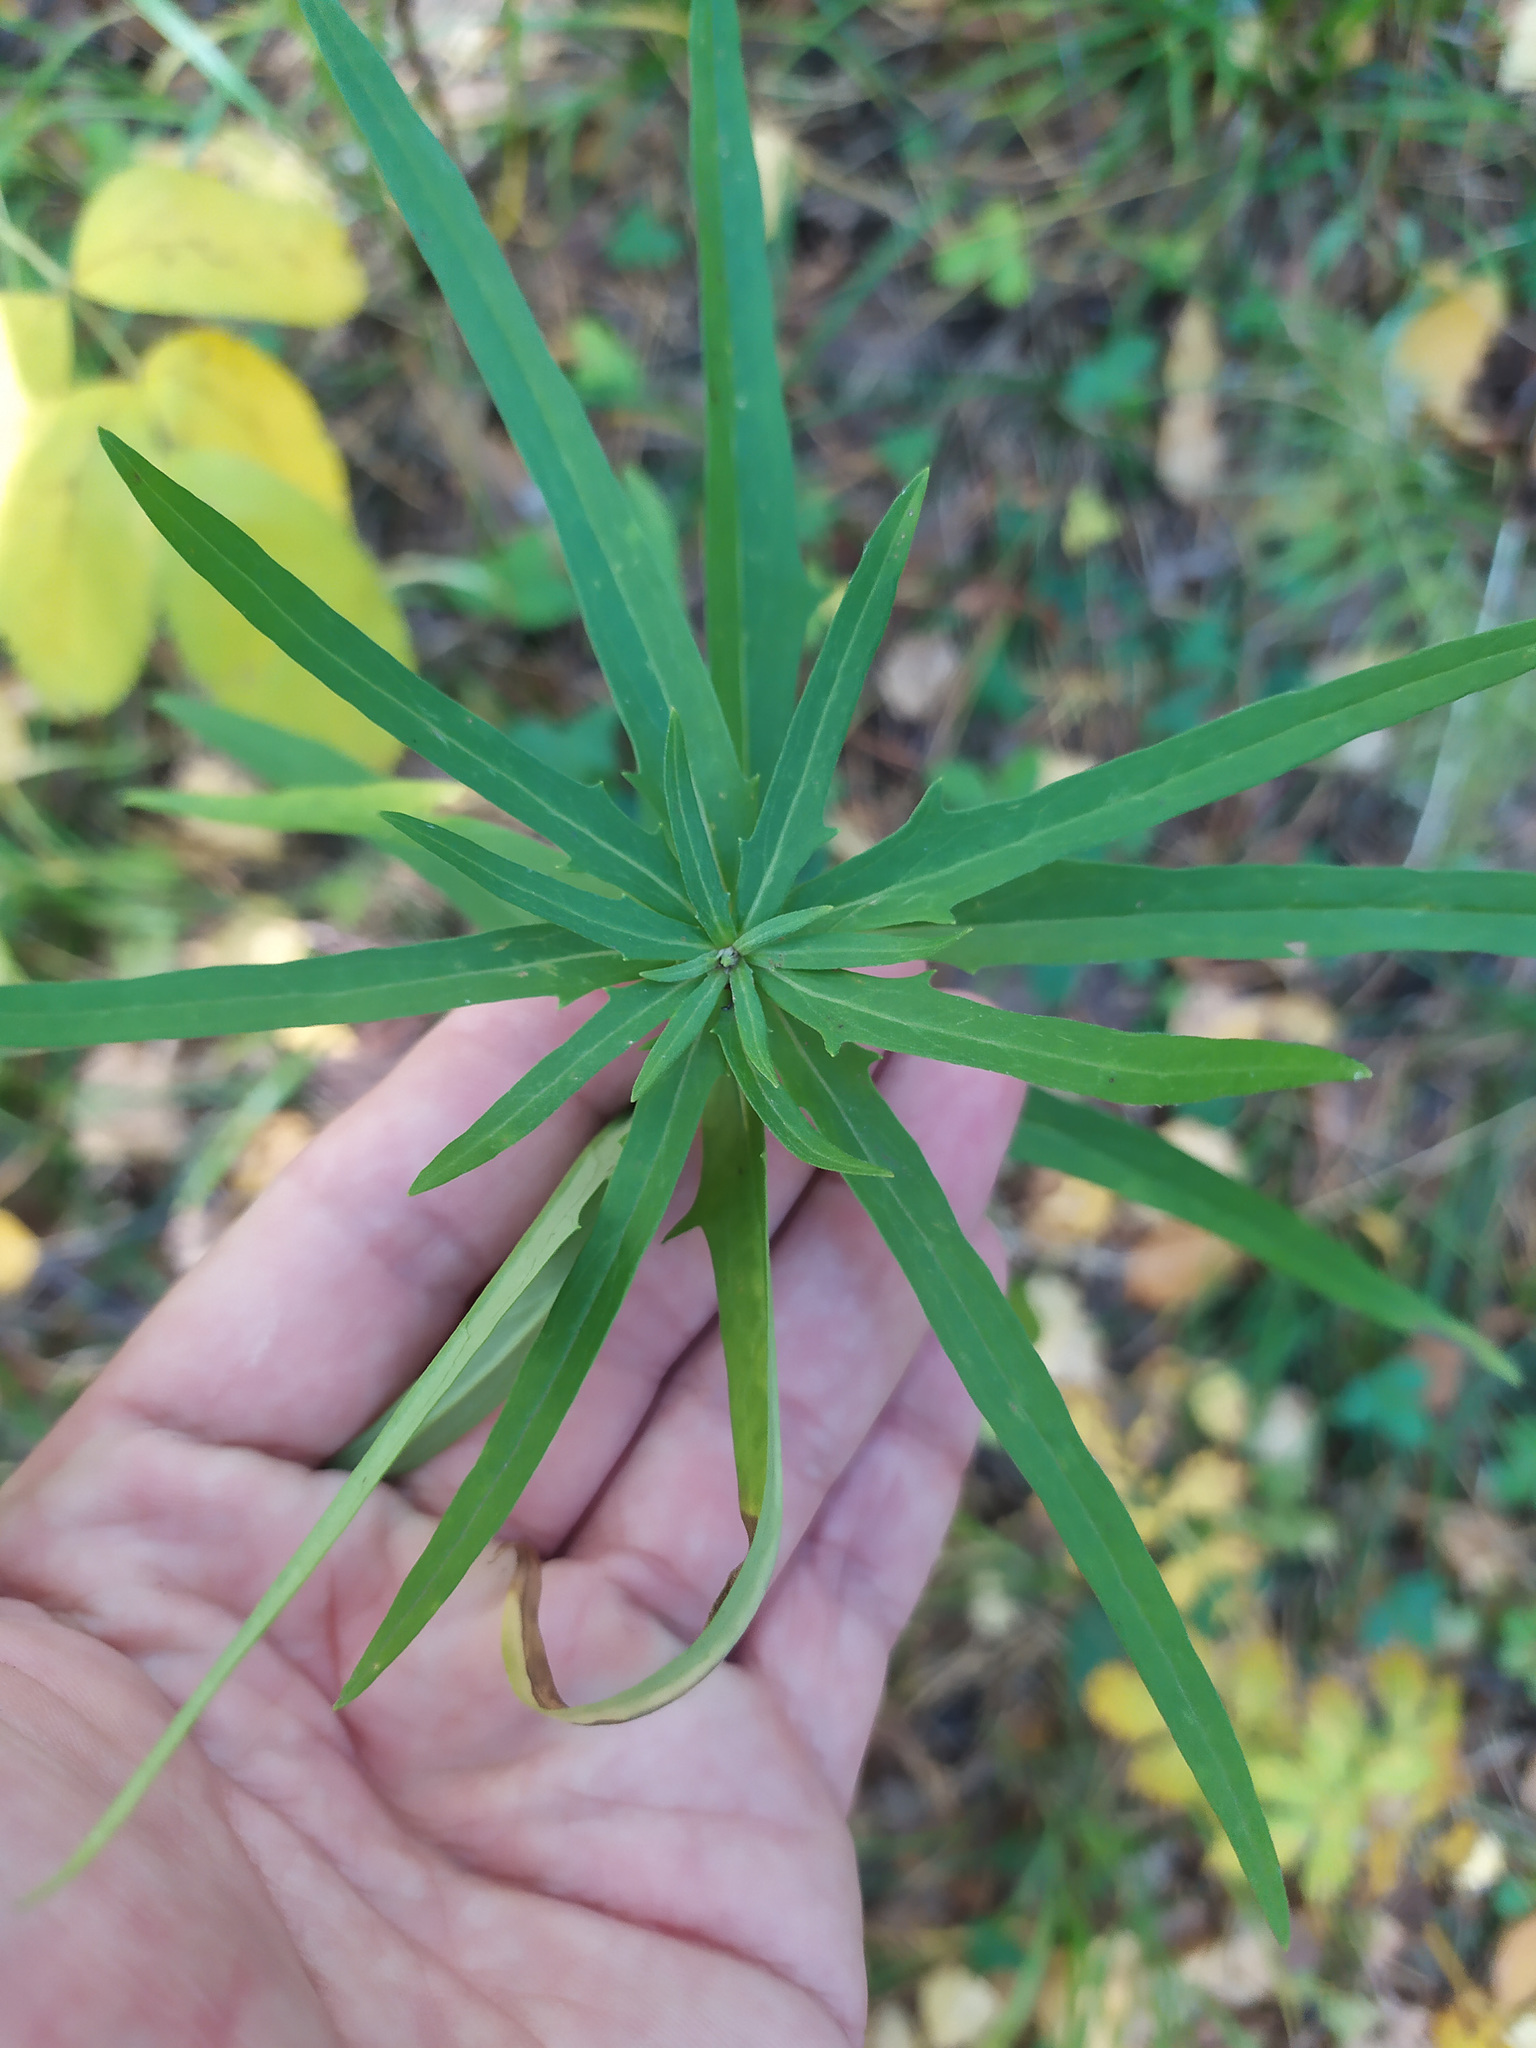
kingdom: Plantae
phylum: Tracheophyta
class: Magnoliopsida
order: Asterales
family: Asteraceae
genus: Hieracium
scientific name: Hieracium umbellatum
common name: Northern hawkweed
